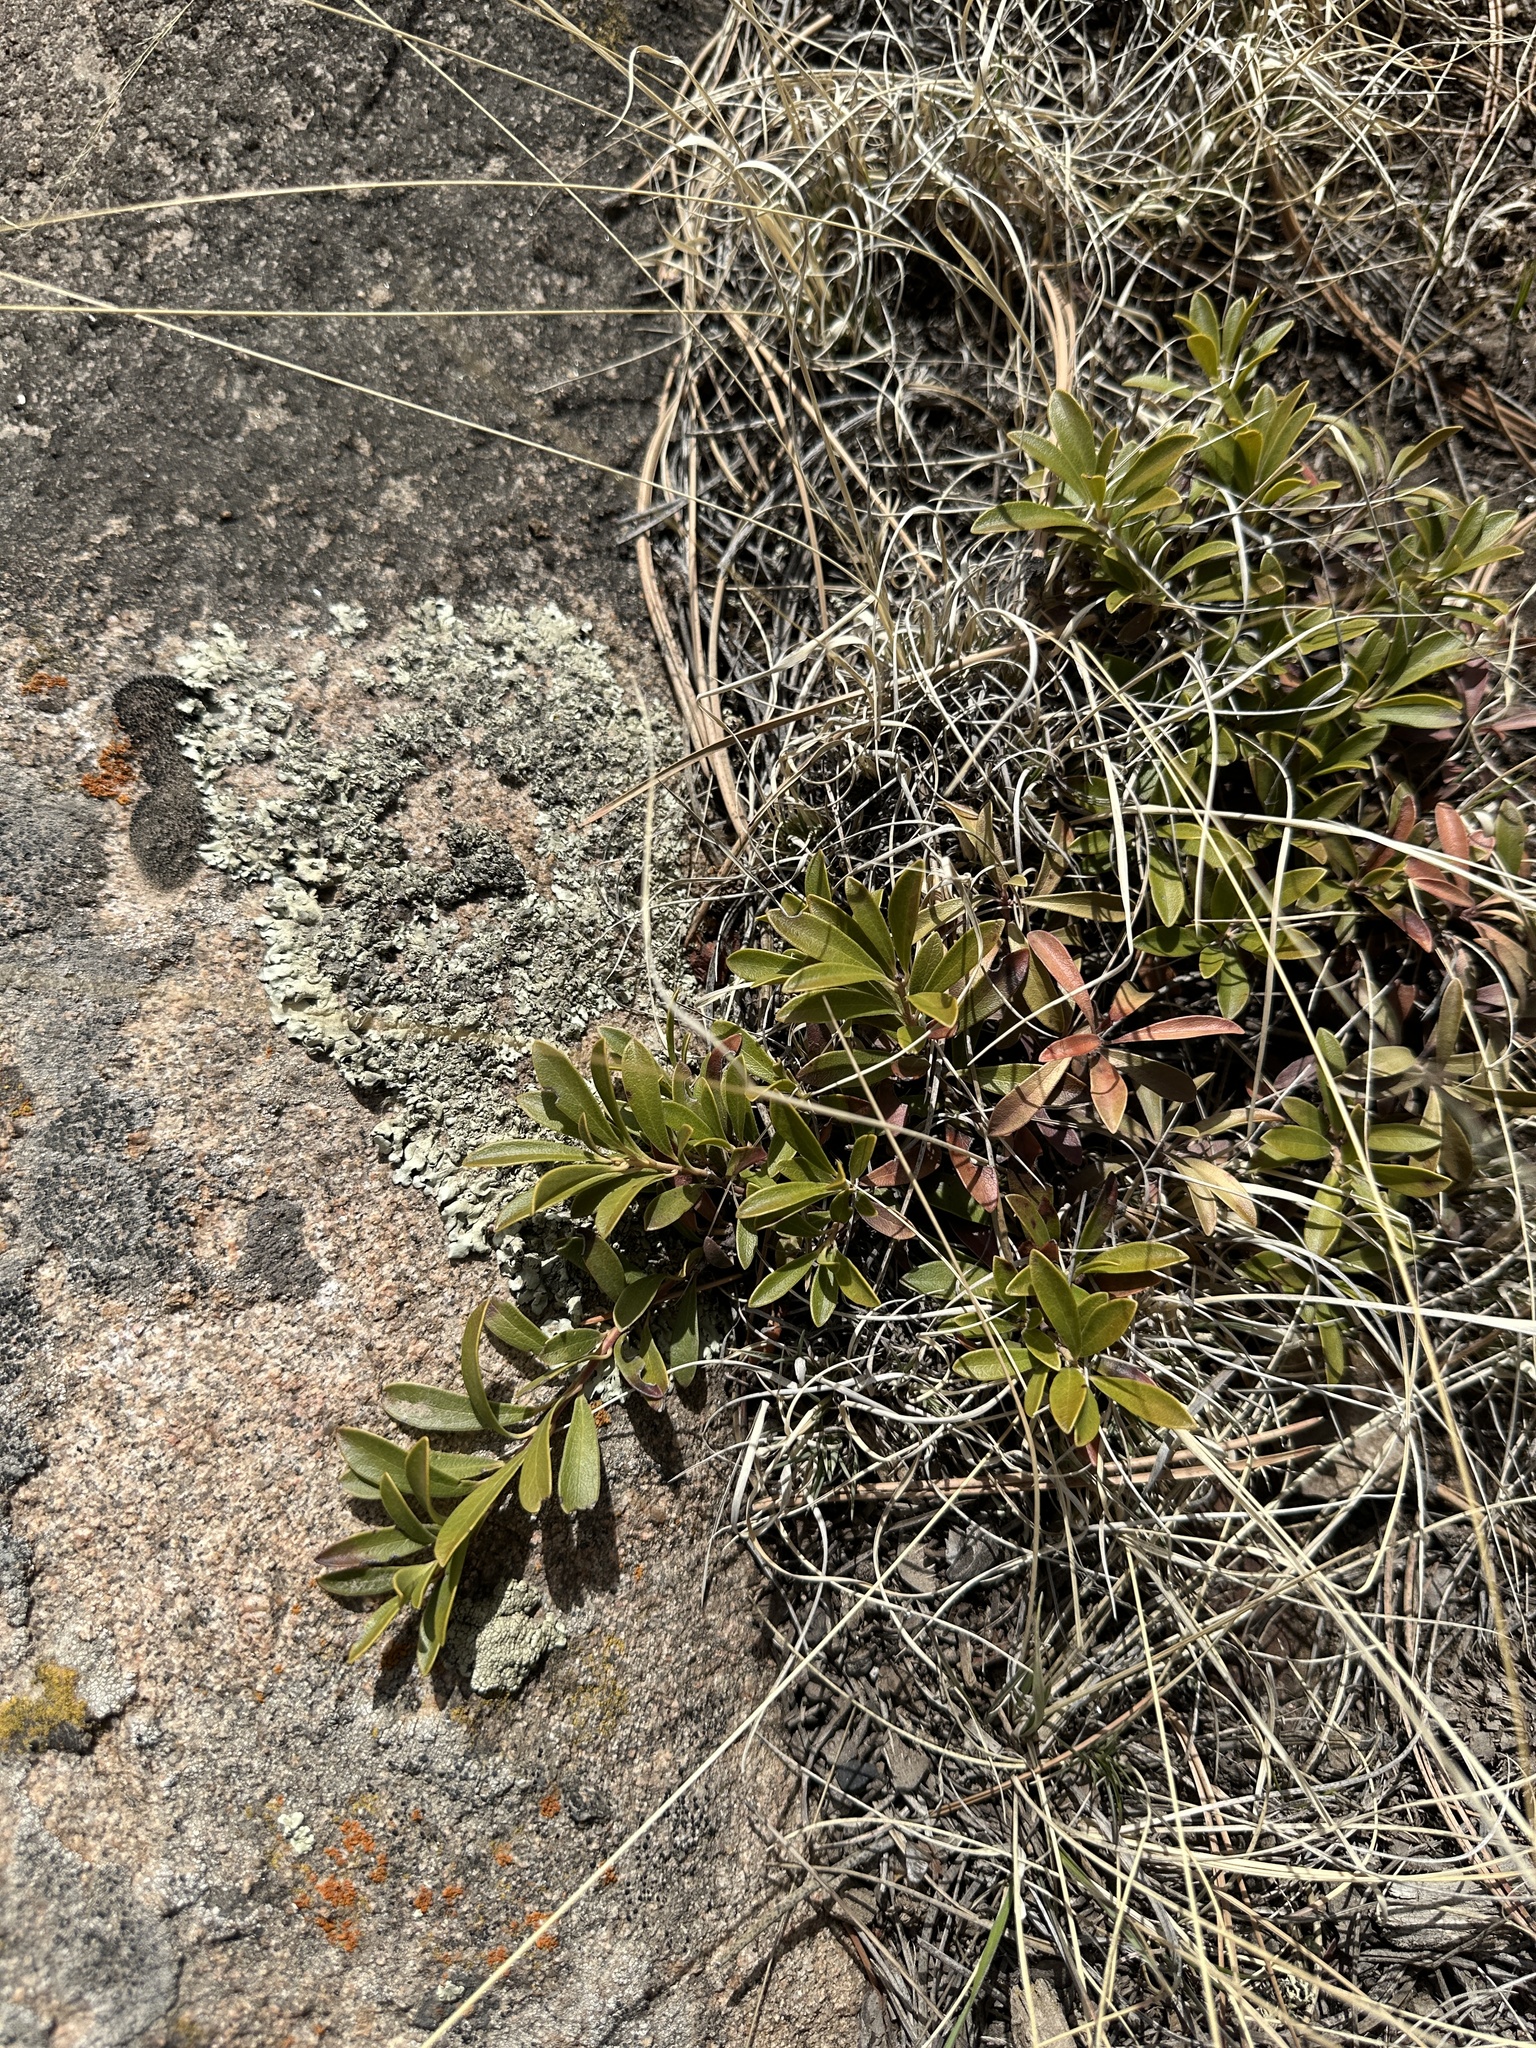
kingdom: Plantae
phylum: Tracheophyta
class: Magnoliopsida
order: Ericales
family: Ericaceae
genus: Arctostaphylos
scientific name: Arctostaphylos uva-ursi
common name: Bearberry
